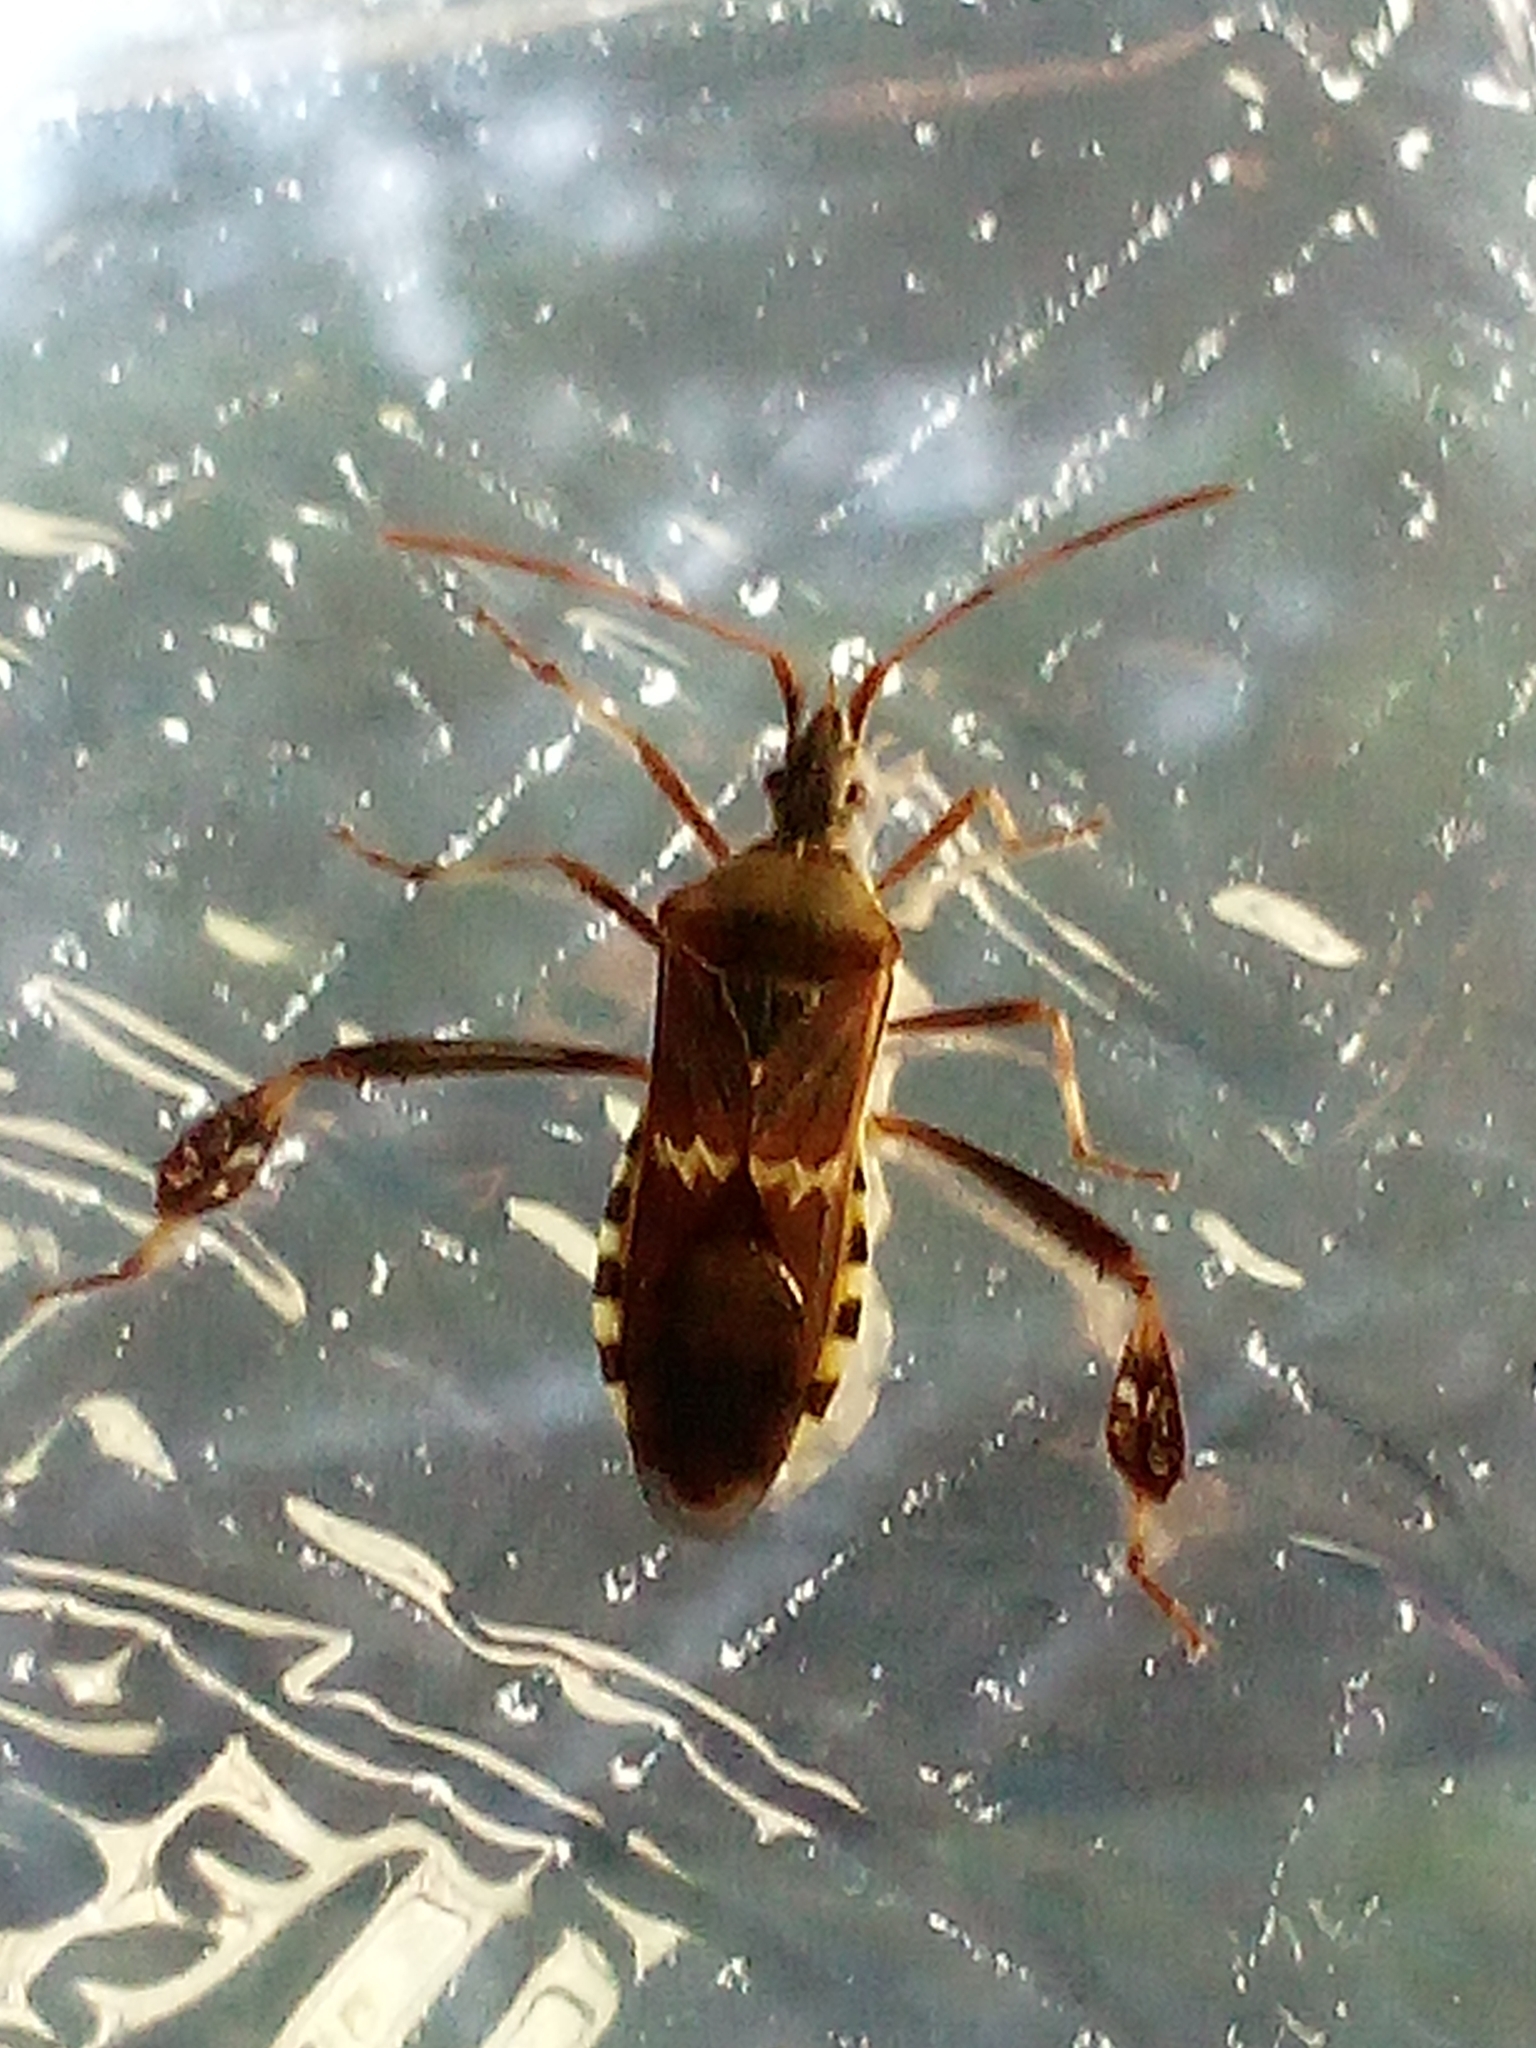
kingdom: Animalia
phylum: Arthropoda
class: Insecta
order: Hemiptera
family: Coreidae
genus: Leptoglossus
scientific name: Leptoglossus clypealis
